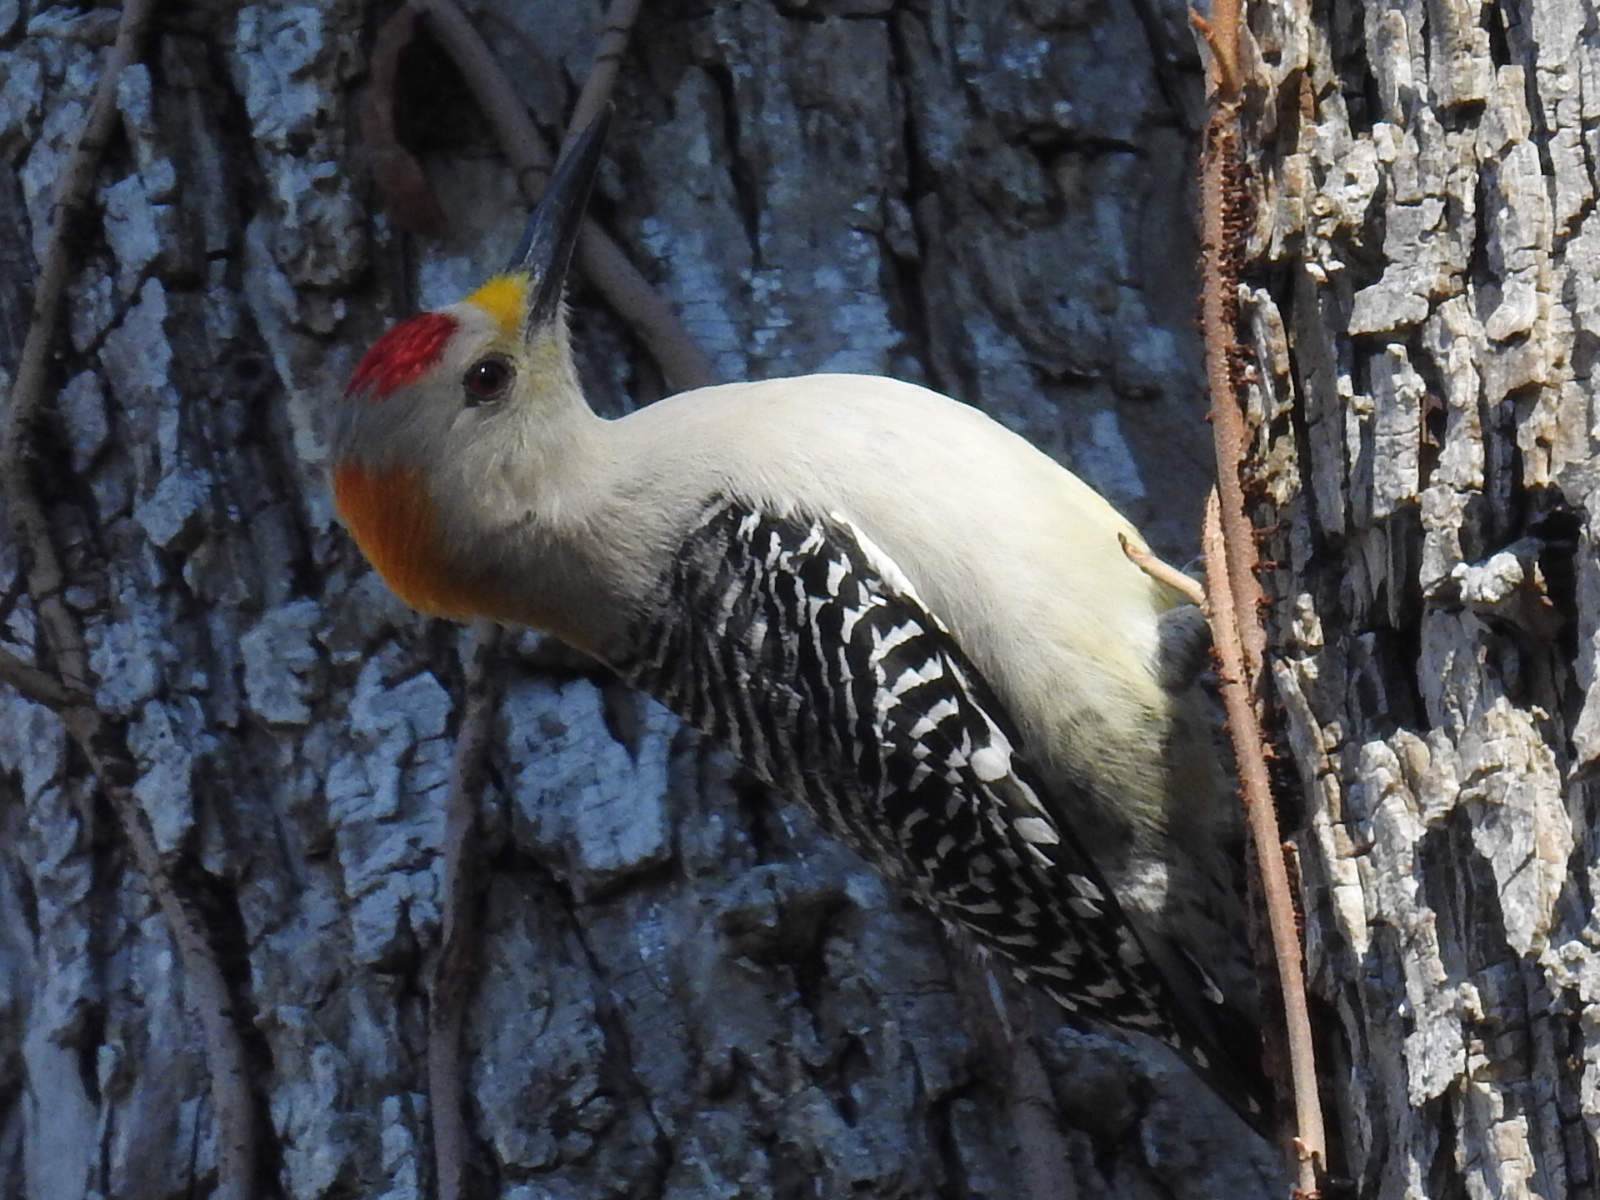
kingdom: Animalia
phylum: Chordata
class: Aves
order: Piciformes
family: Picidae
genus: Melanerpes
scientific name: Melanerpes aurifrons
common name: Golden-fronted woodpecker
